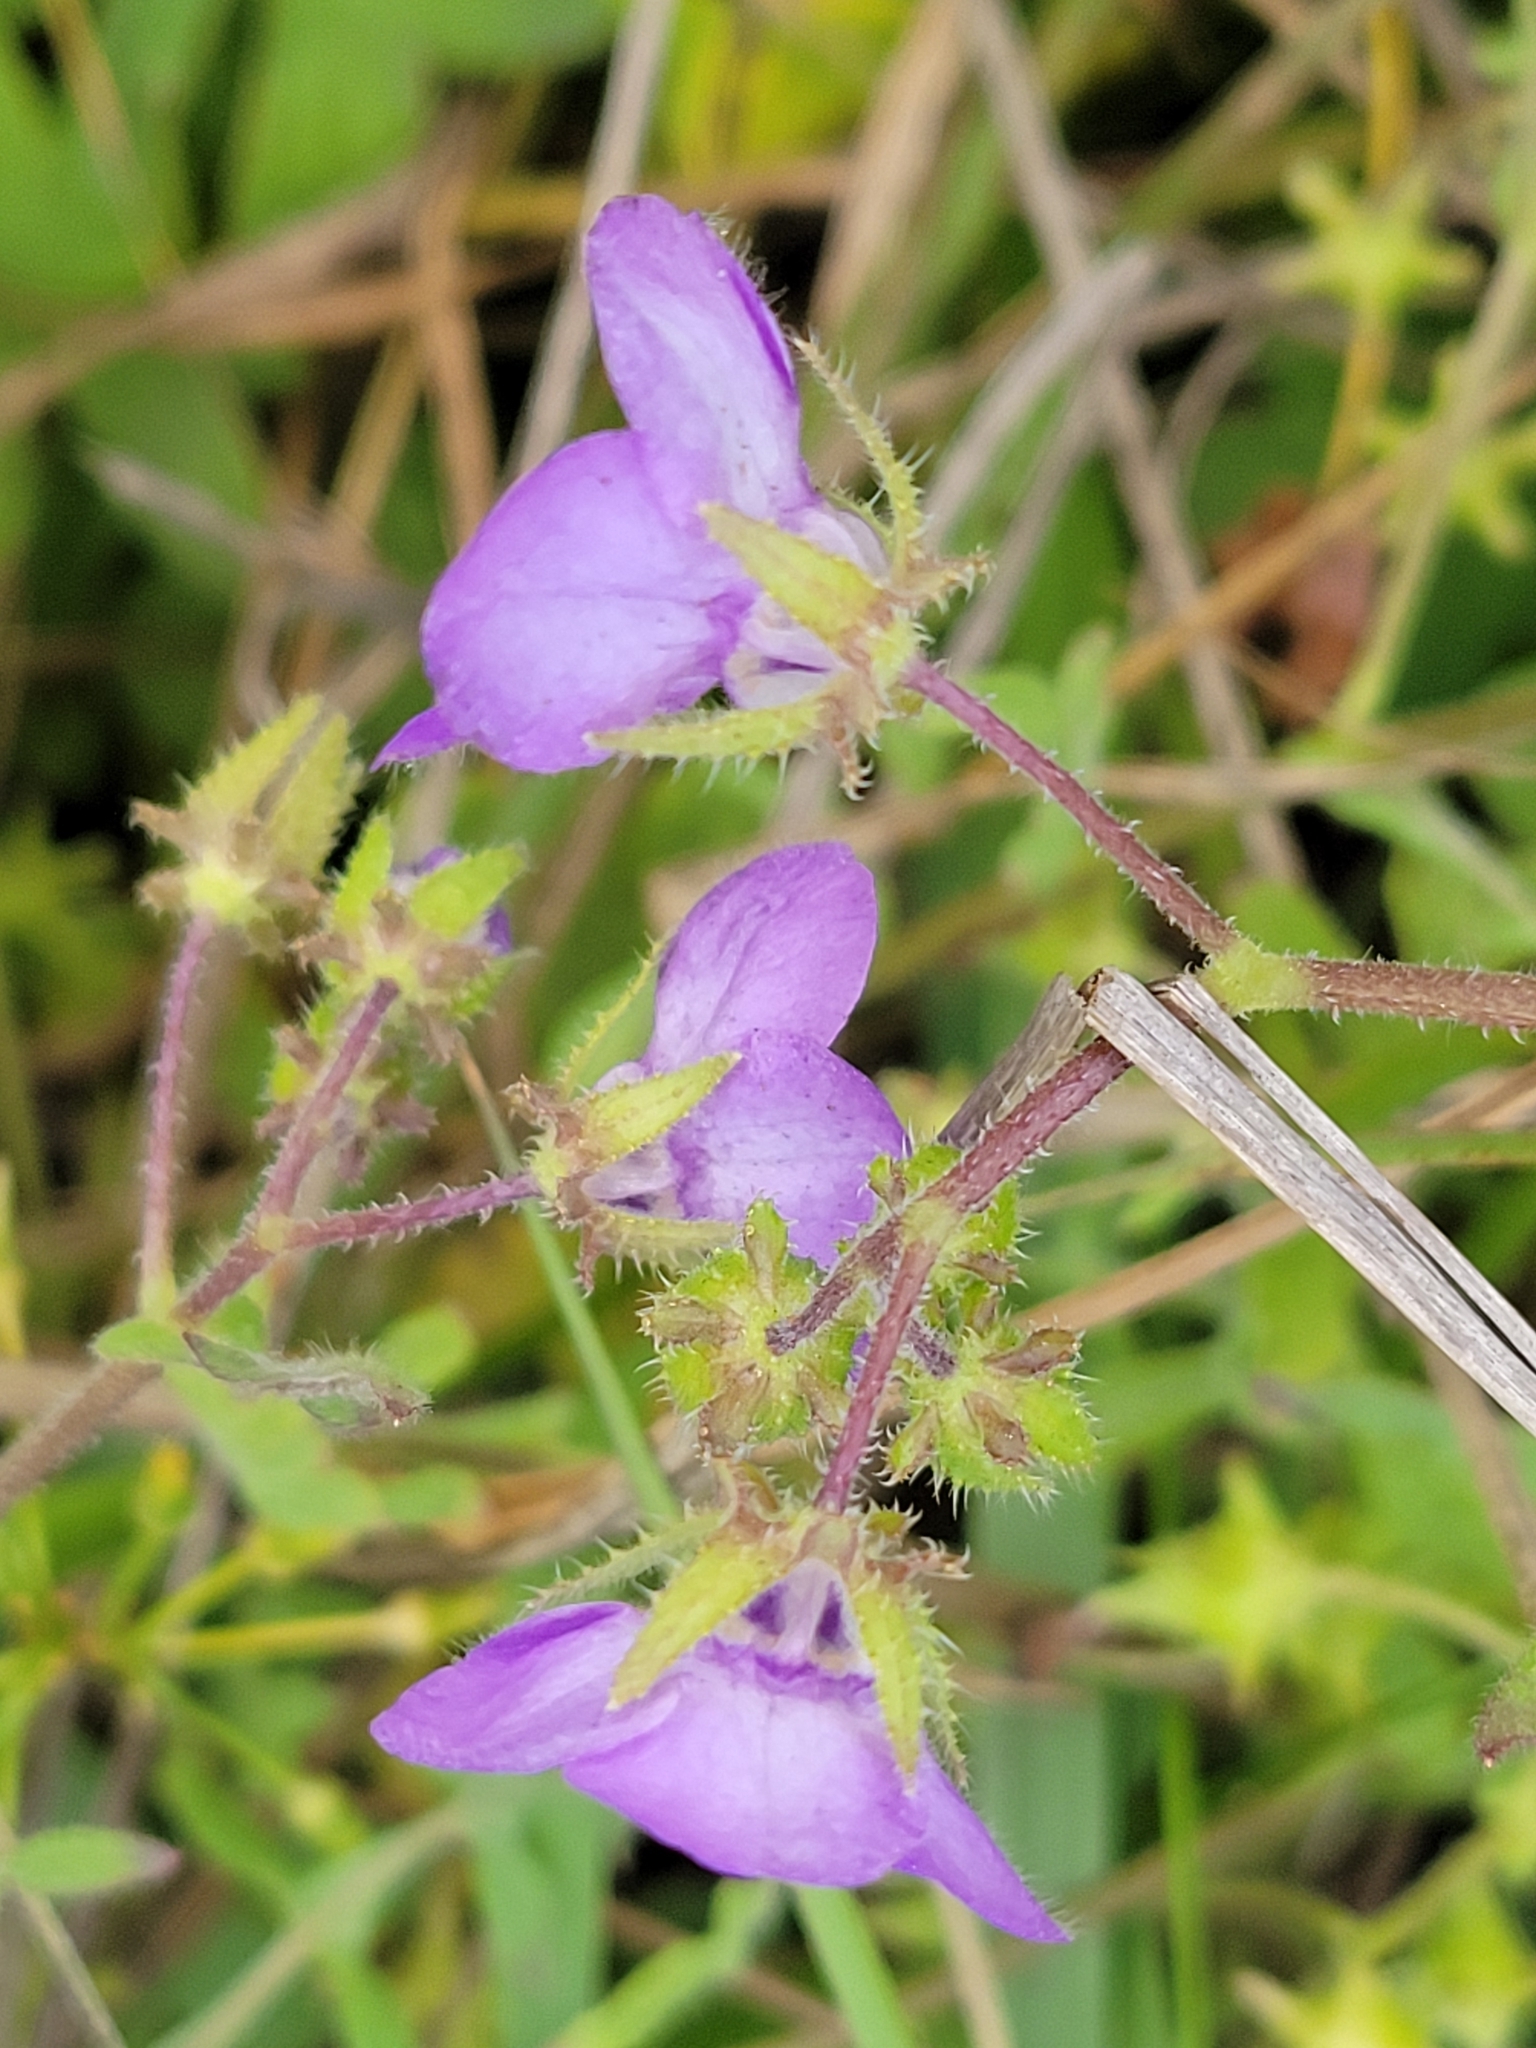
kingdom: Plantae
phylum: Tracheophyta
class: Magnoliopsida
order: Boraginales
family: Hydrophyllaceae
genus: Pholistoma
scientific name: Pholistoma auritum
